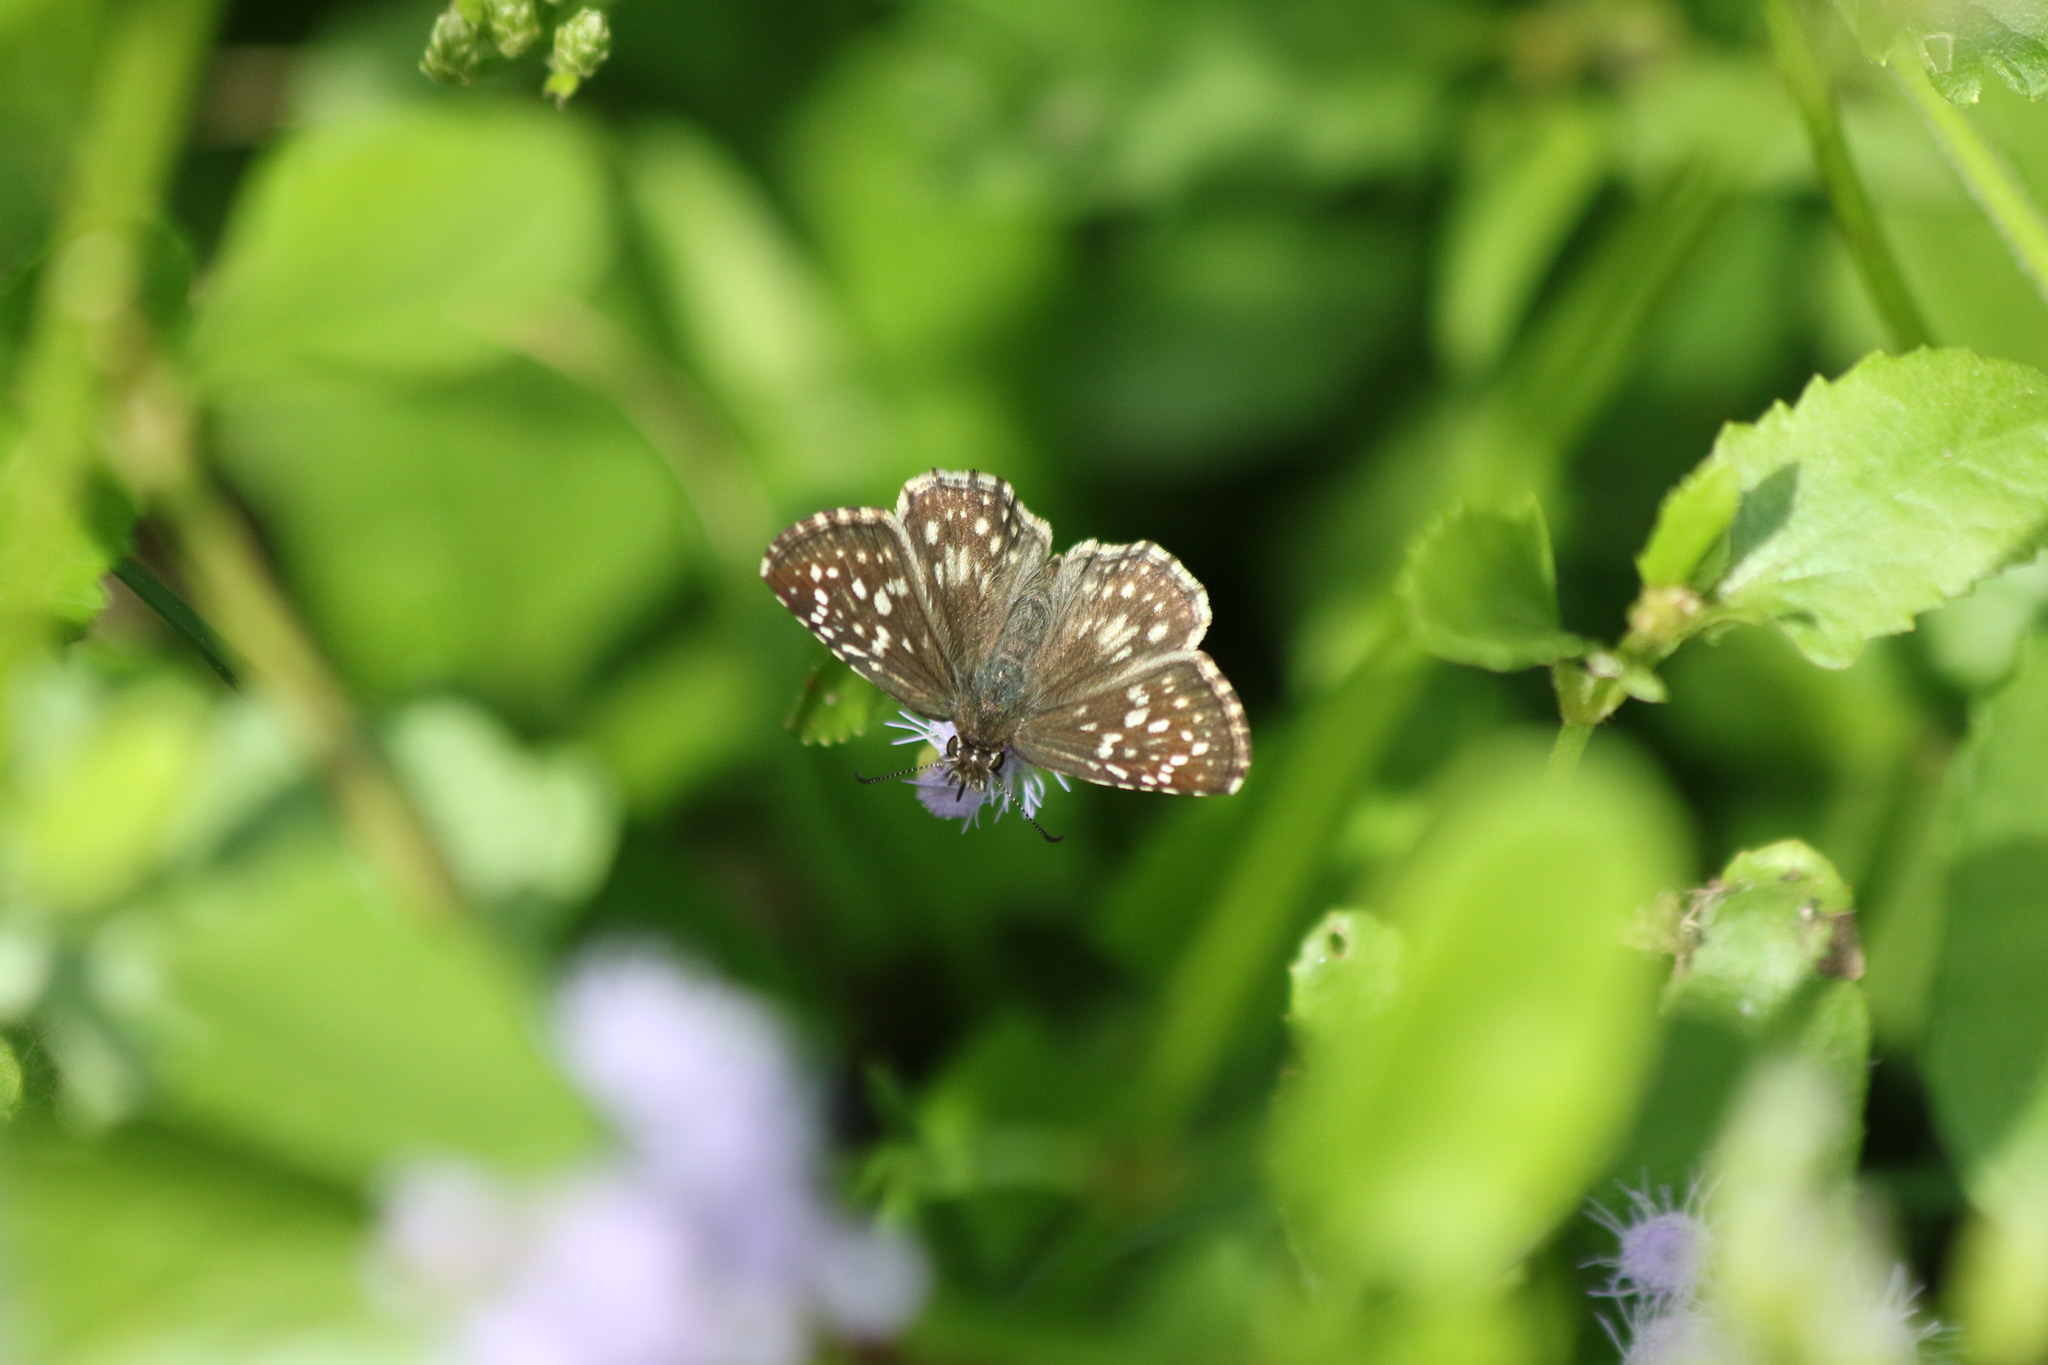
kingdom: Animalia
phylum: Arthropoda
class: Insecta
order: Lepidoptera
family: Hesperiidae
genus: Pyrgus
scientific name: Pyrgus oileus
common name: Tropical checkered-skipper
